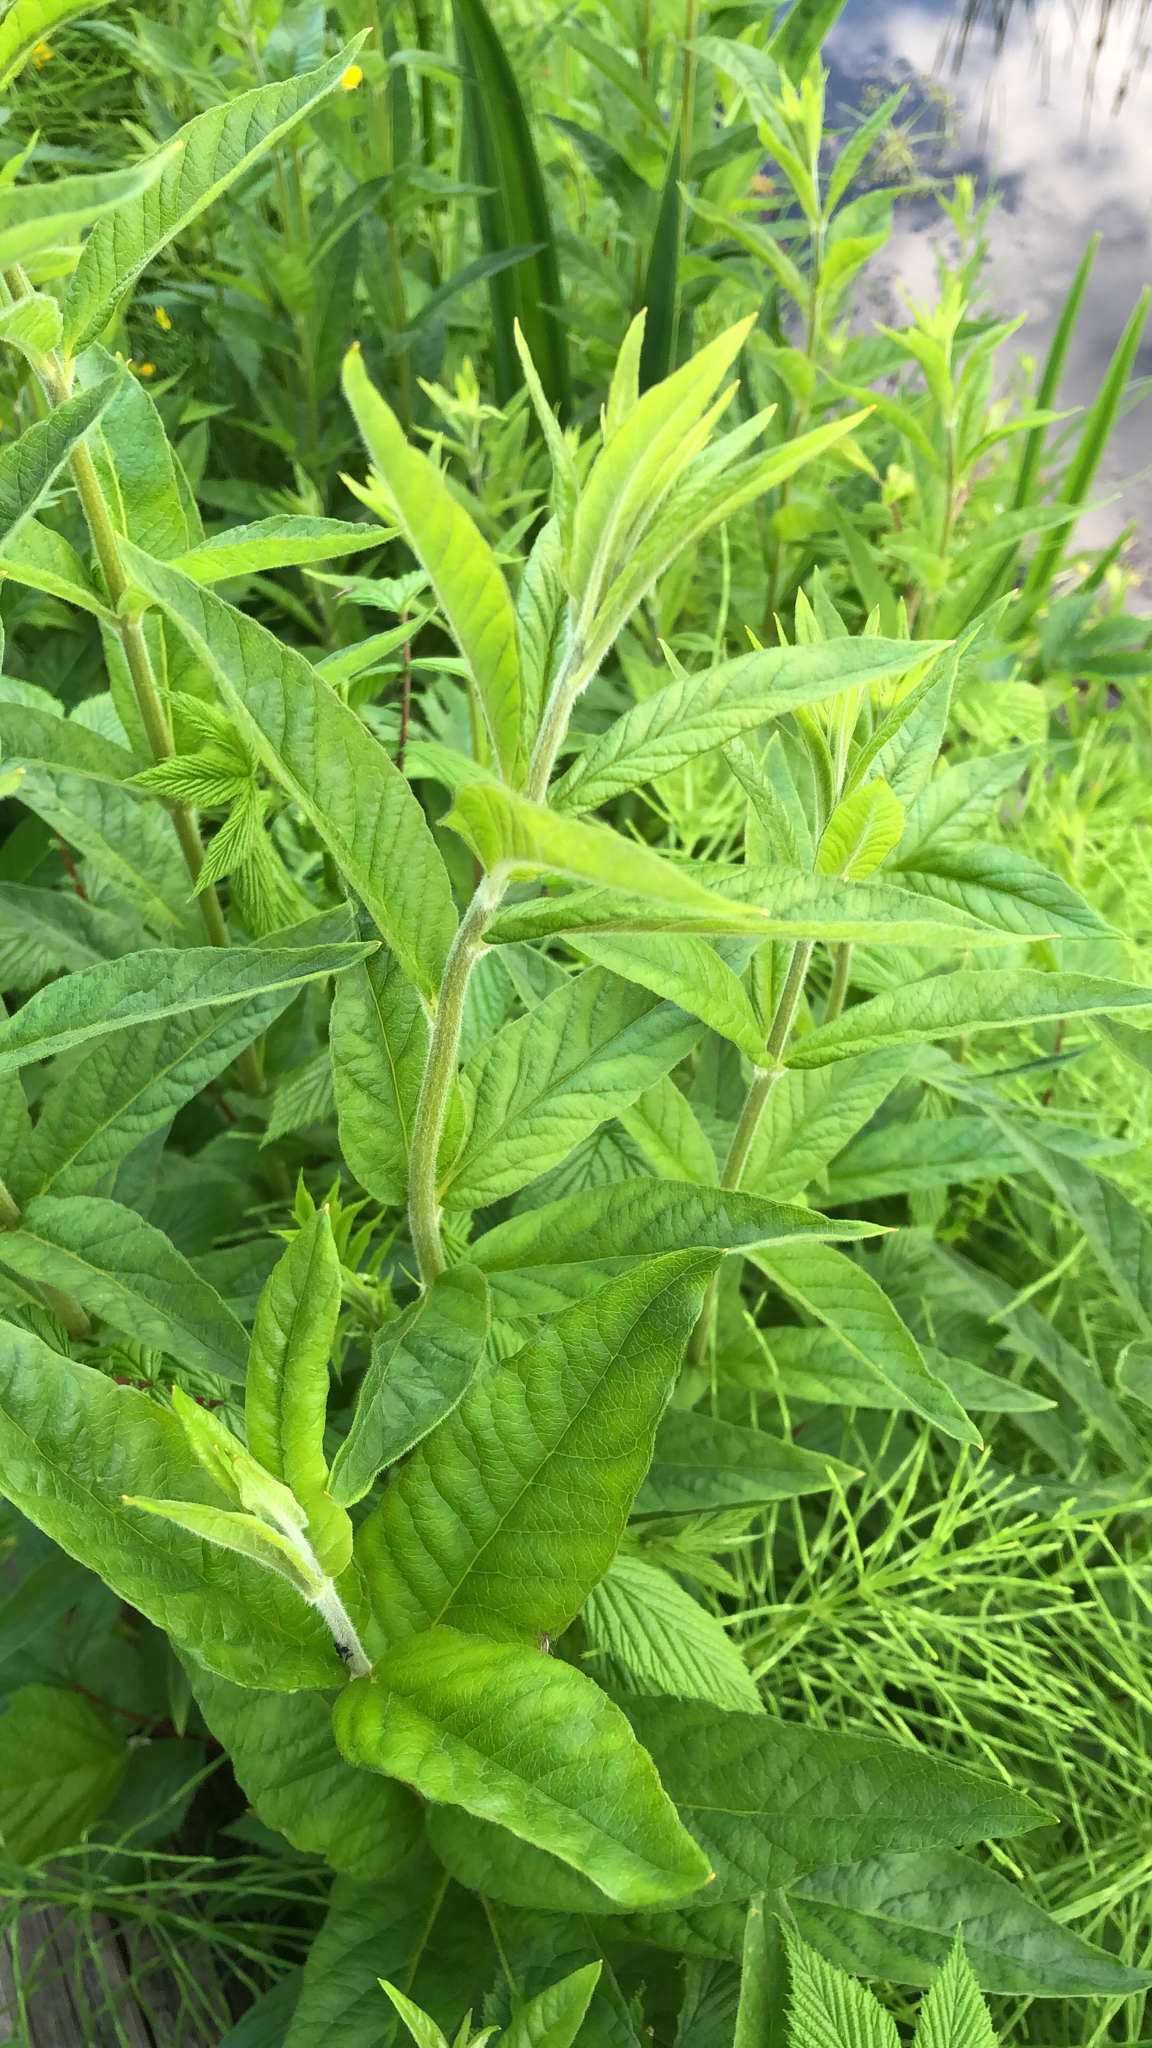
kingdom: Plantae
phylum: Tracheophyta
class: Magnoliopsida
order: Ericales
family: Primulaceae
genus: Lysimachia
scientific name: Lysimachia vulgaris
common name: Yellow loosestrife
